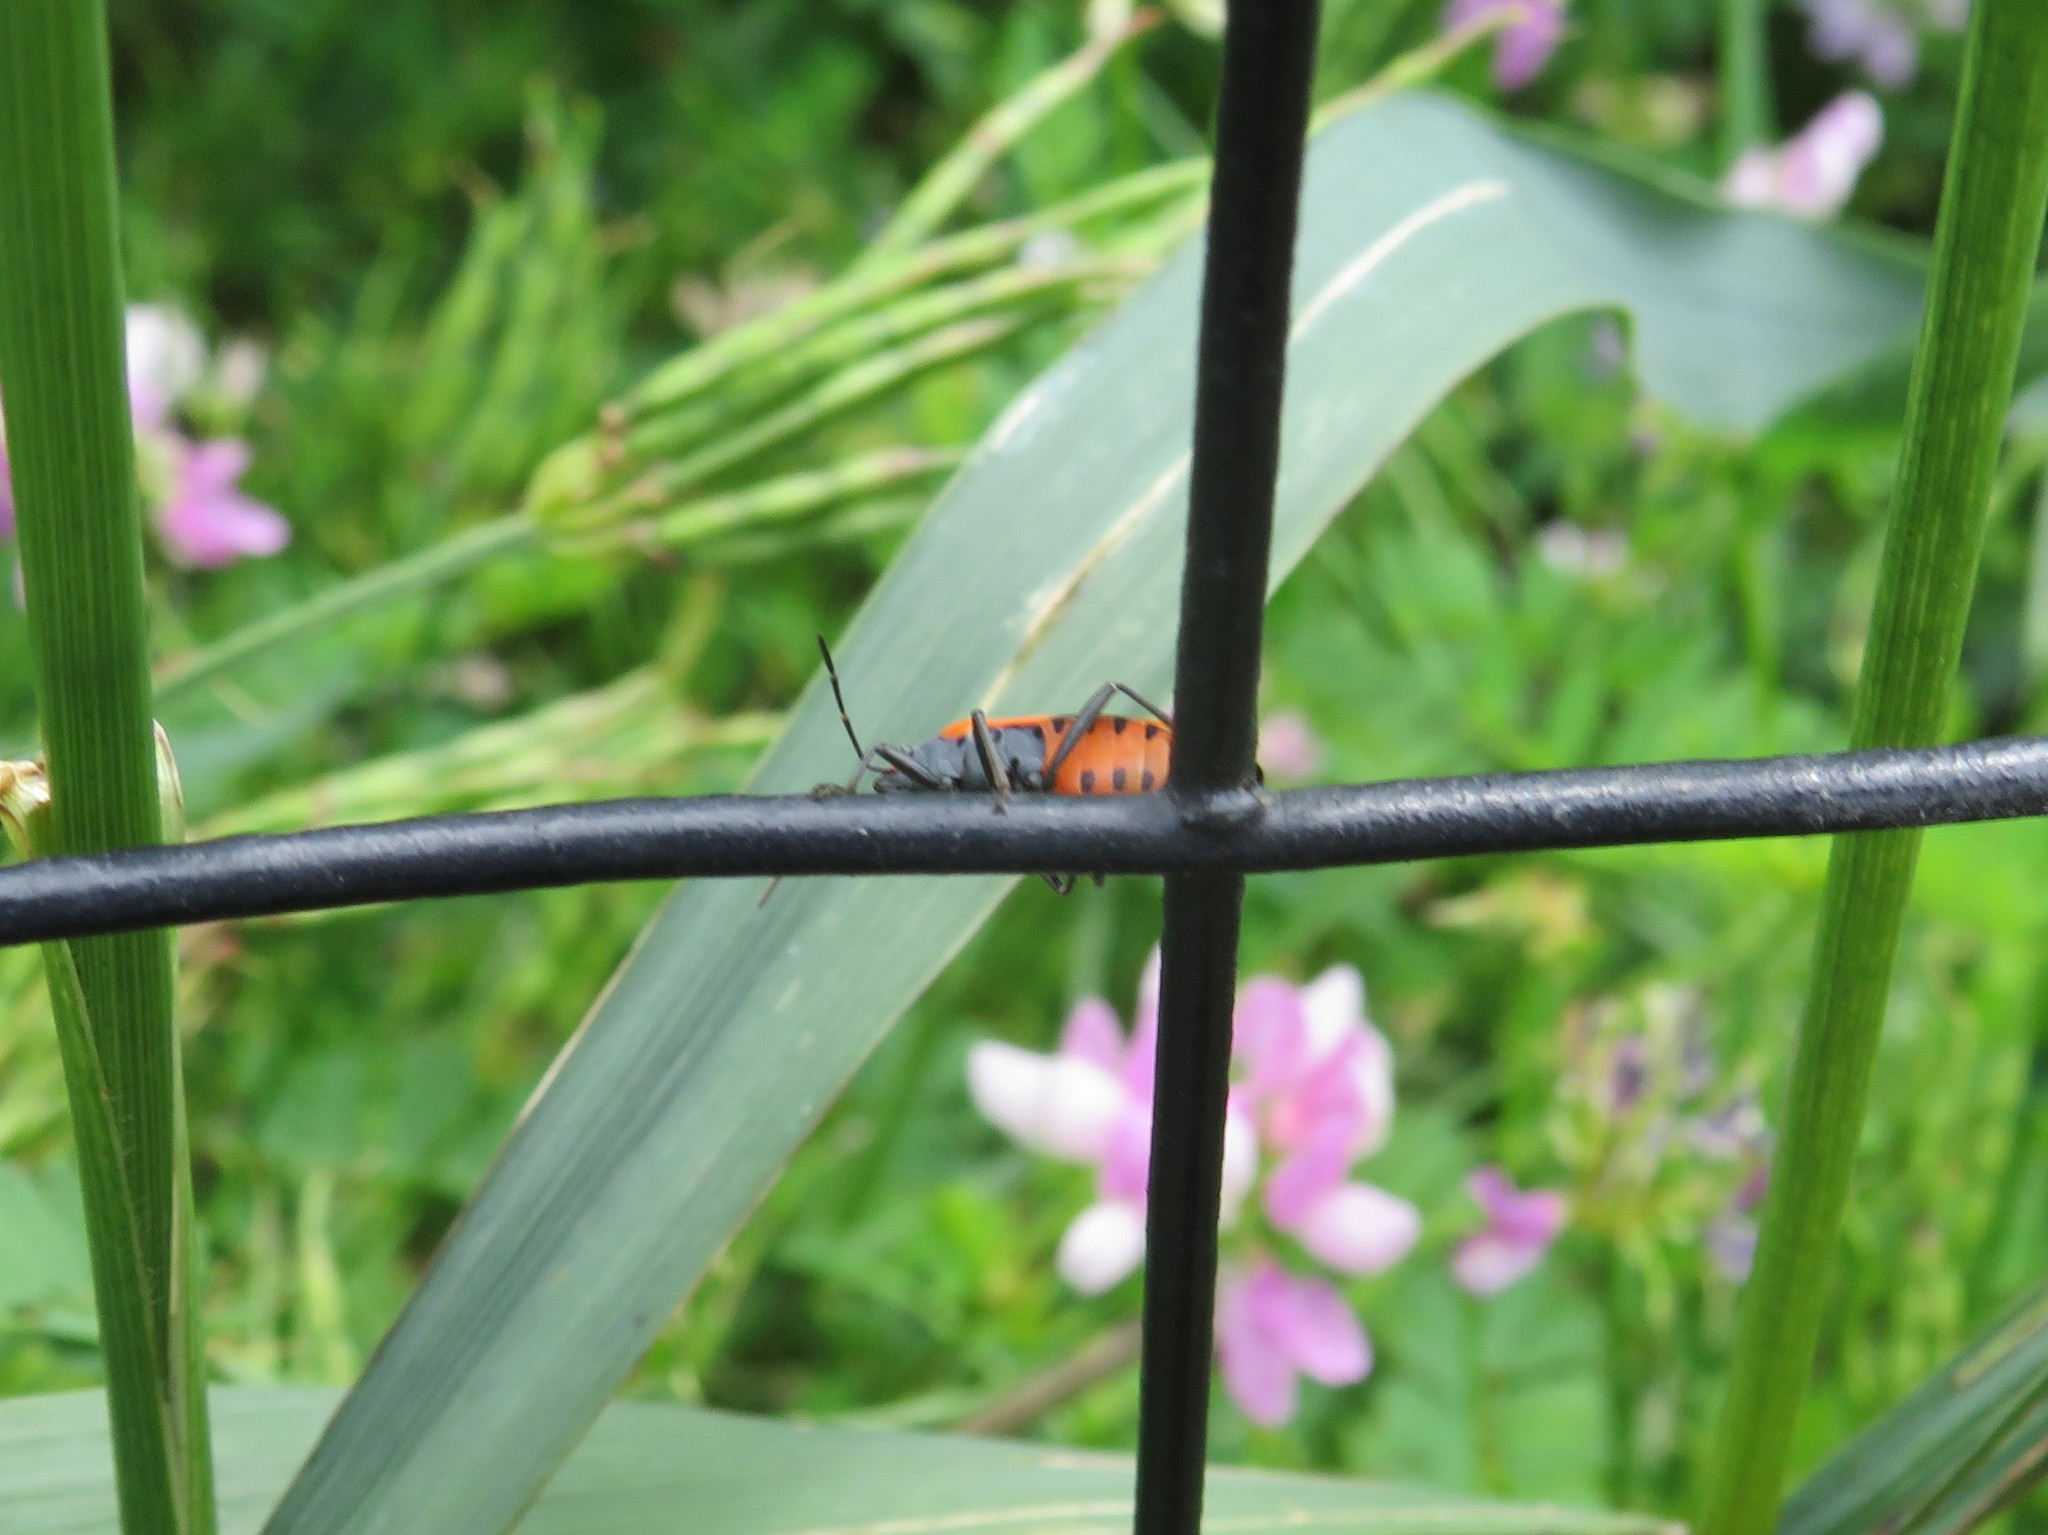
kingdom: Animalia
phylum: Arthropoda
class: Insecta
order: Hemiptera
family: Lygaeidae
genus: Lygaeus
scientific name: Lygaeus turcicus
